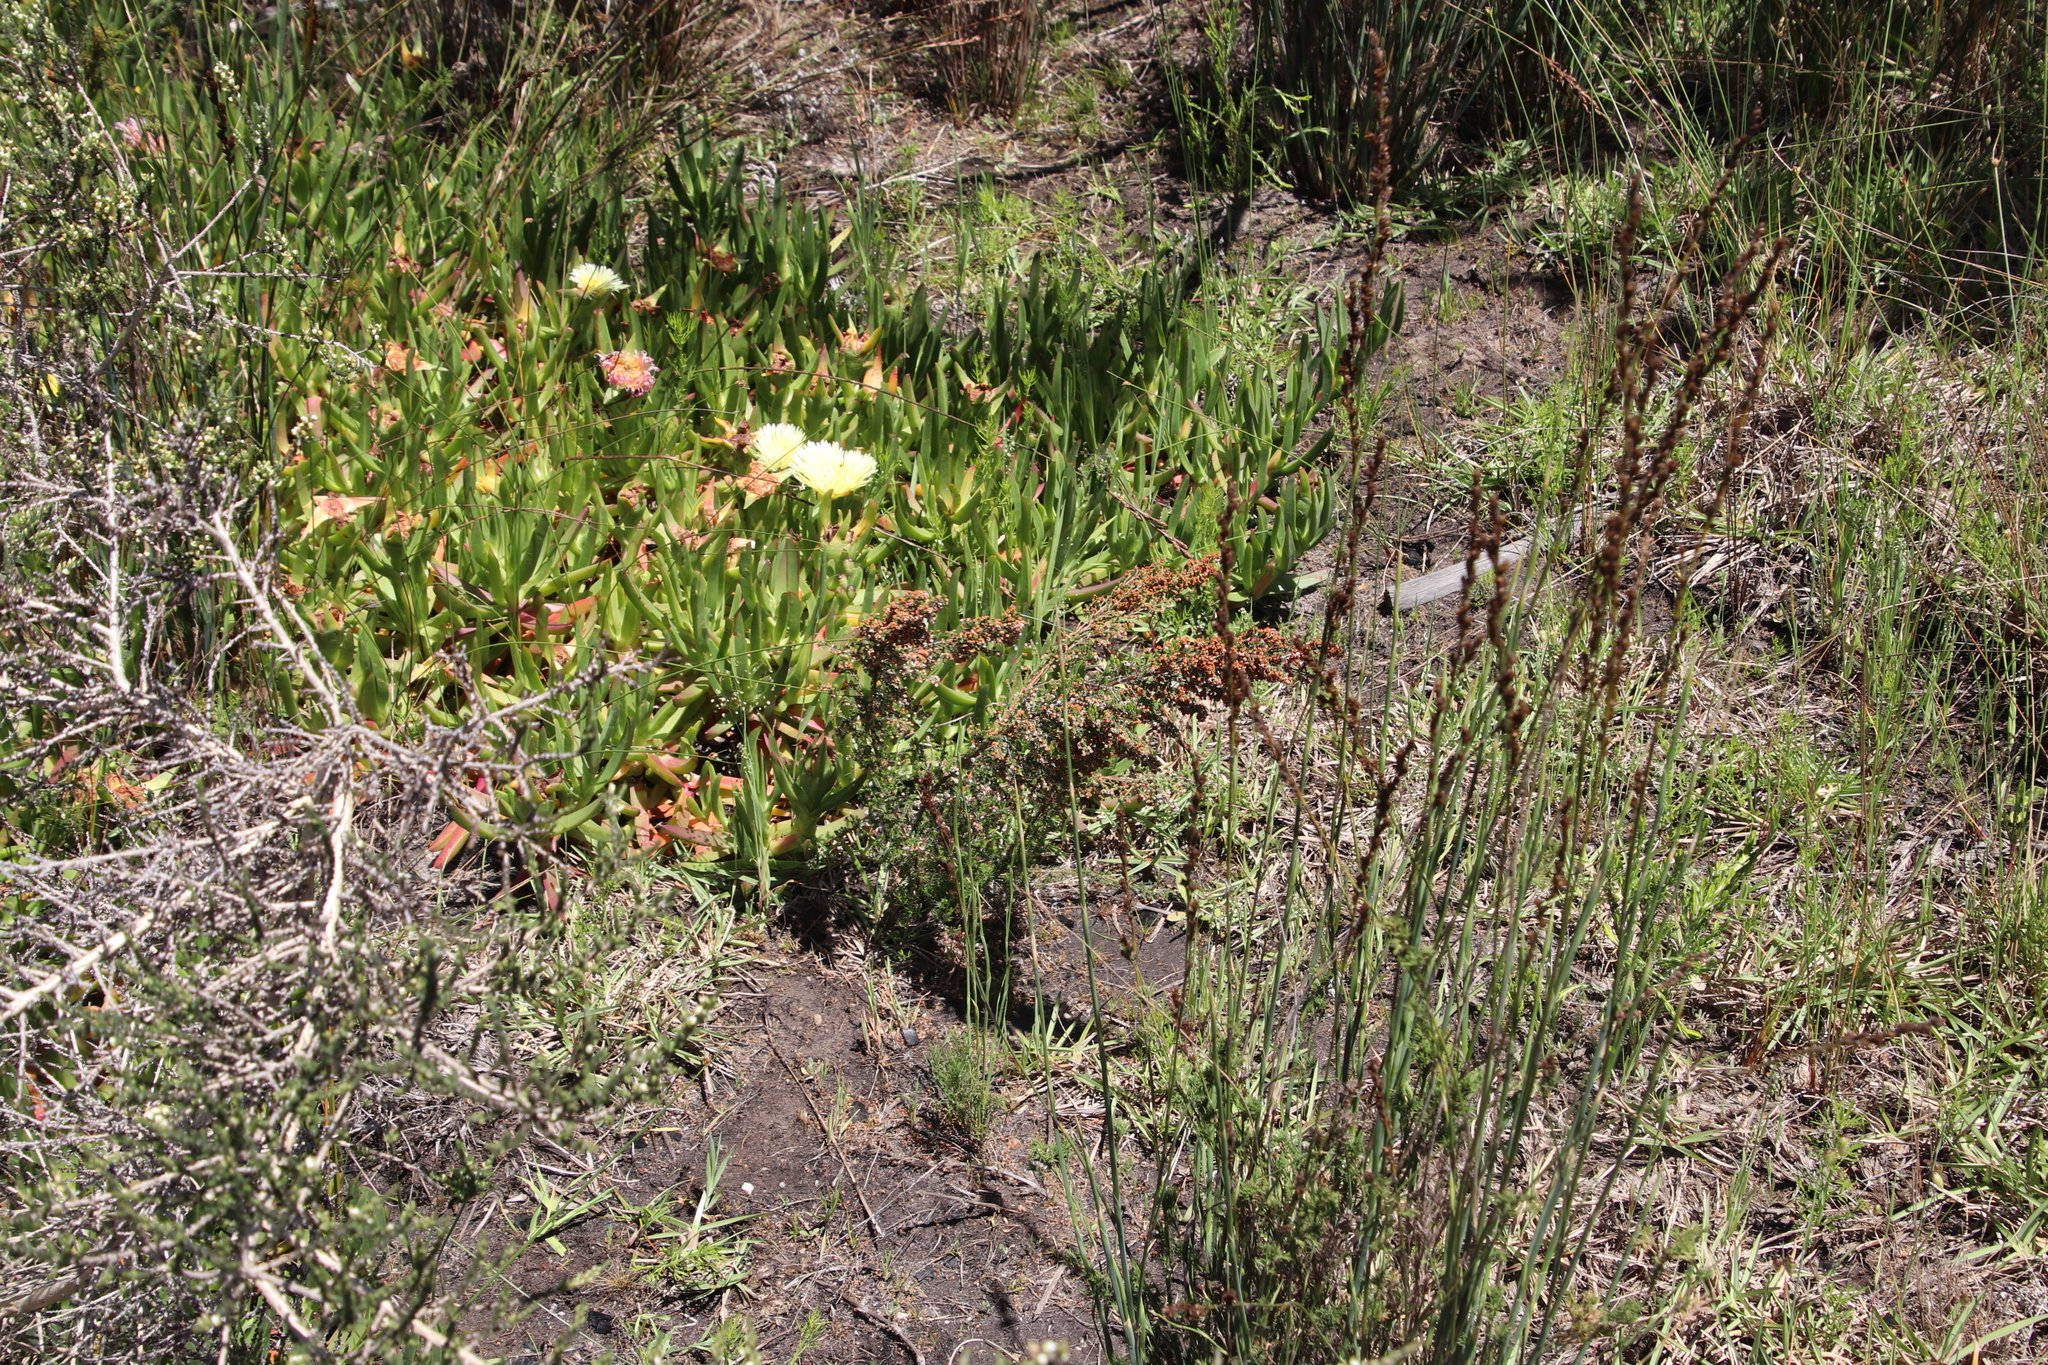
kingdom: Plantae
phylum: Tracheophyta
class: Magnoliopsida
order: Ericales
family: Ericaceae
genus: Erica
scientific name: Erica mauritanica
